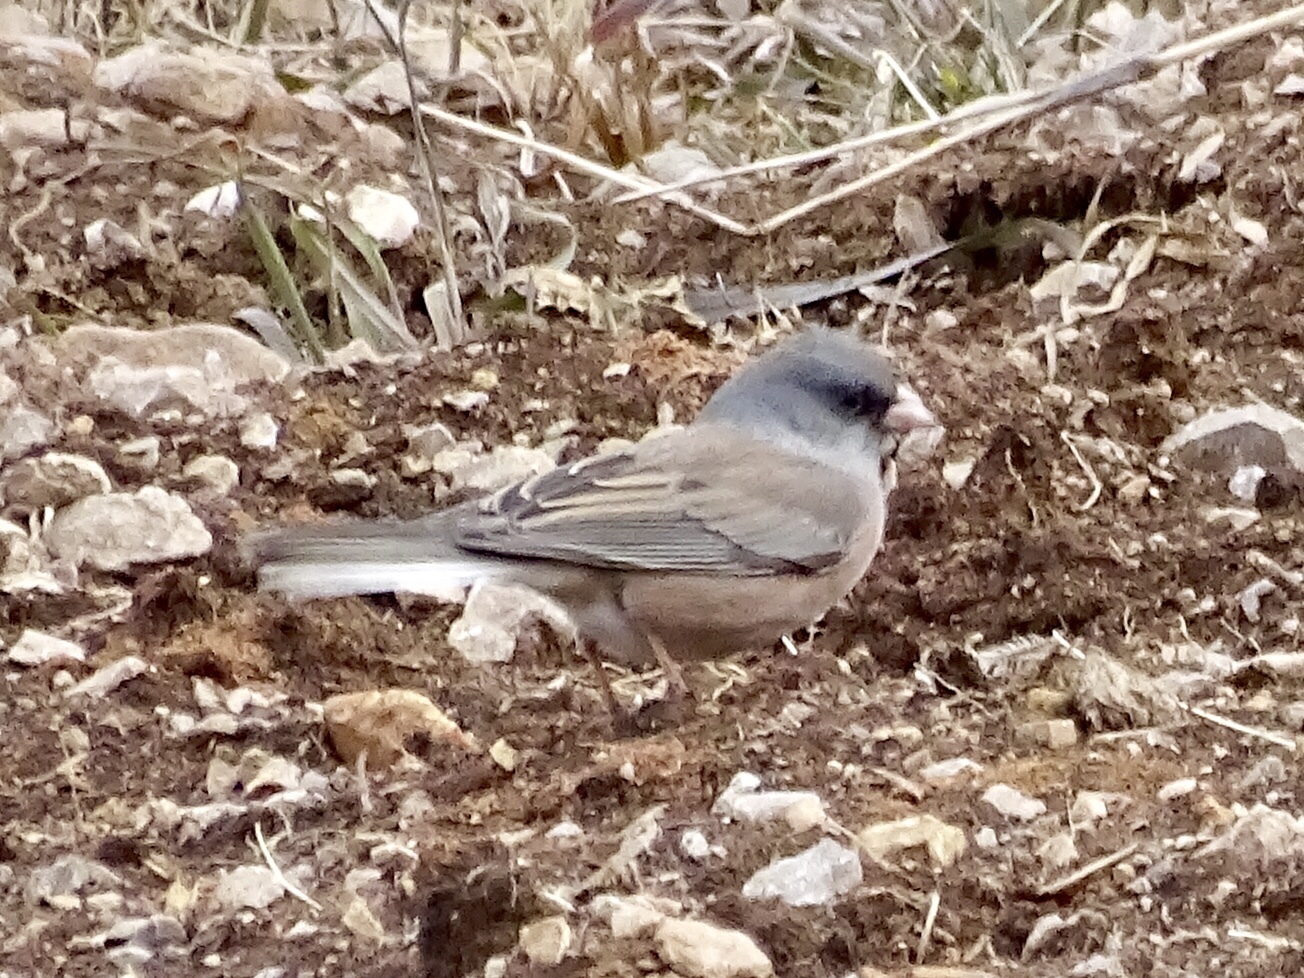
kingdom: Animalia
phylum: Chordata
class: Aves
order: Passeriformes
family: Passerellidae
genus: Junco
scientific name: Junco hyemalis
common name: Dark-eyed junco
